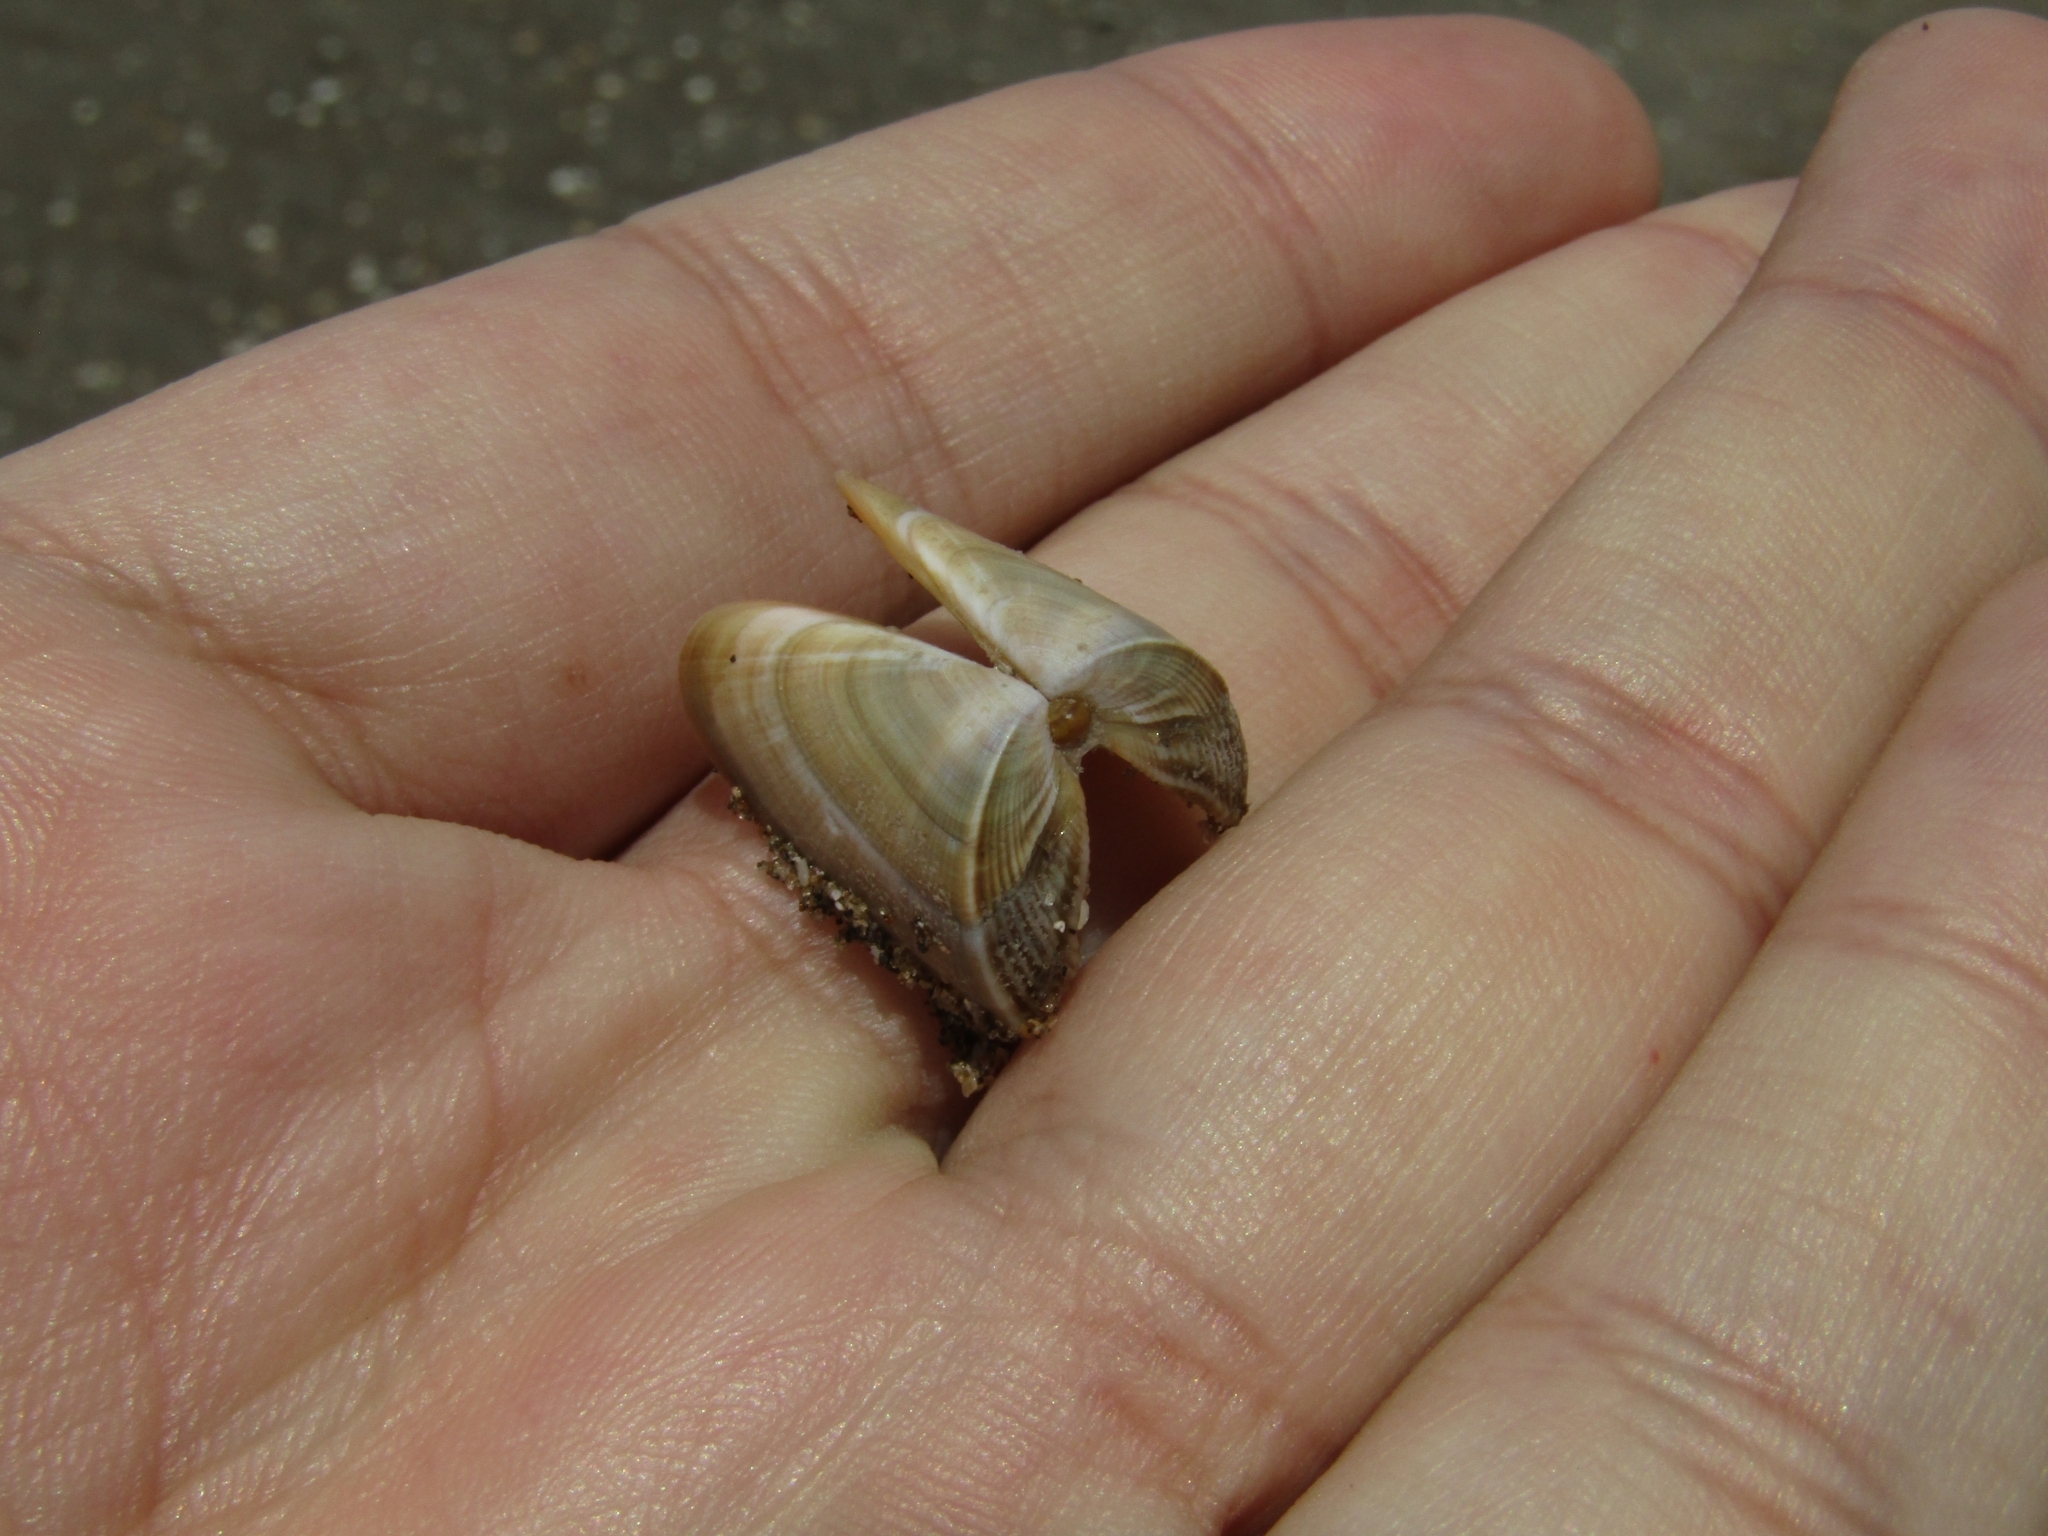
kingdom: Animalia
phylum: Mollusca
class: Bivalvia
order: Cardiida
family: Donacidae
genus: Donax
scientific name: Donax hanleyanus
